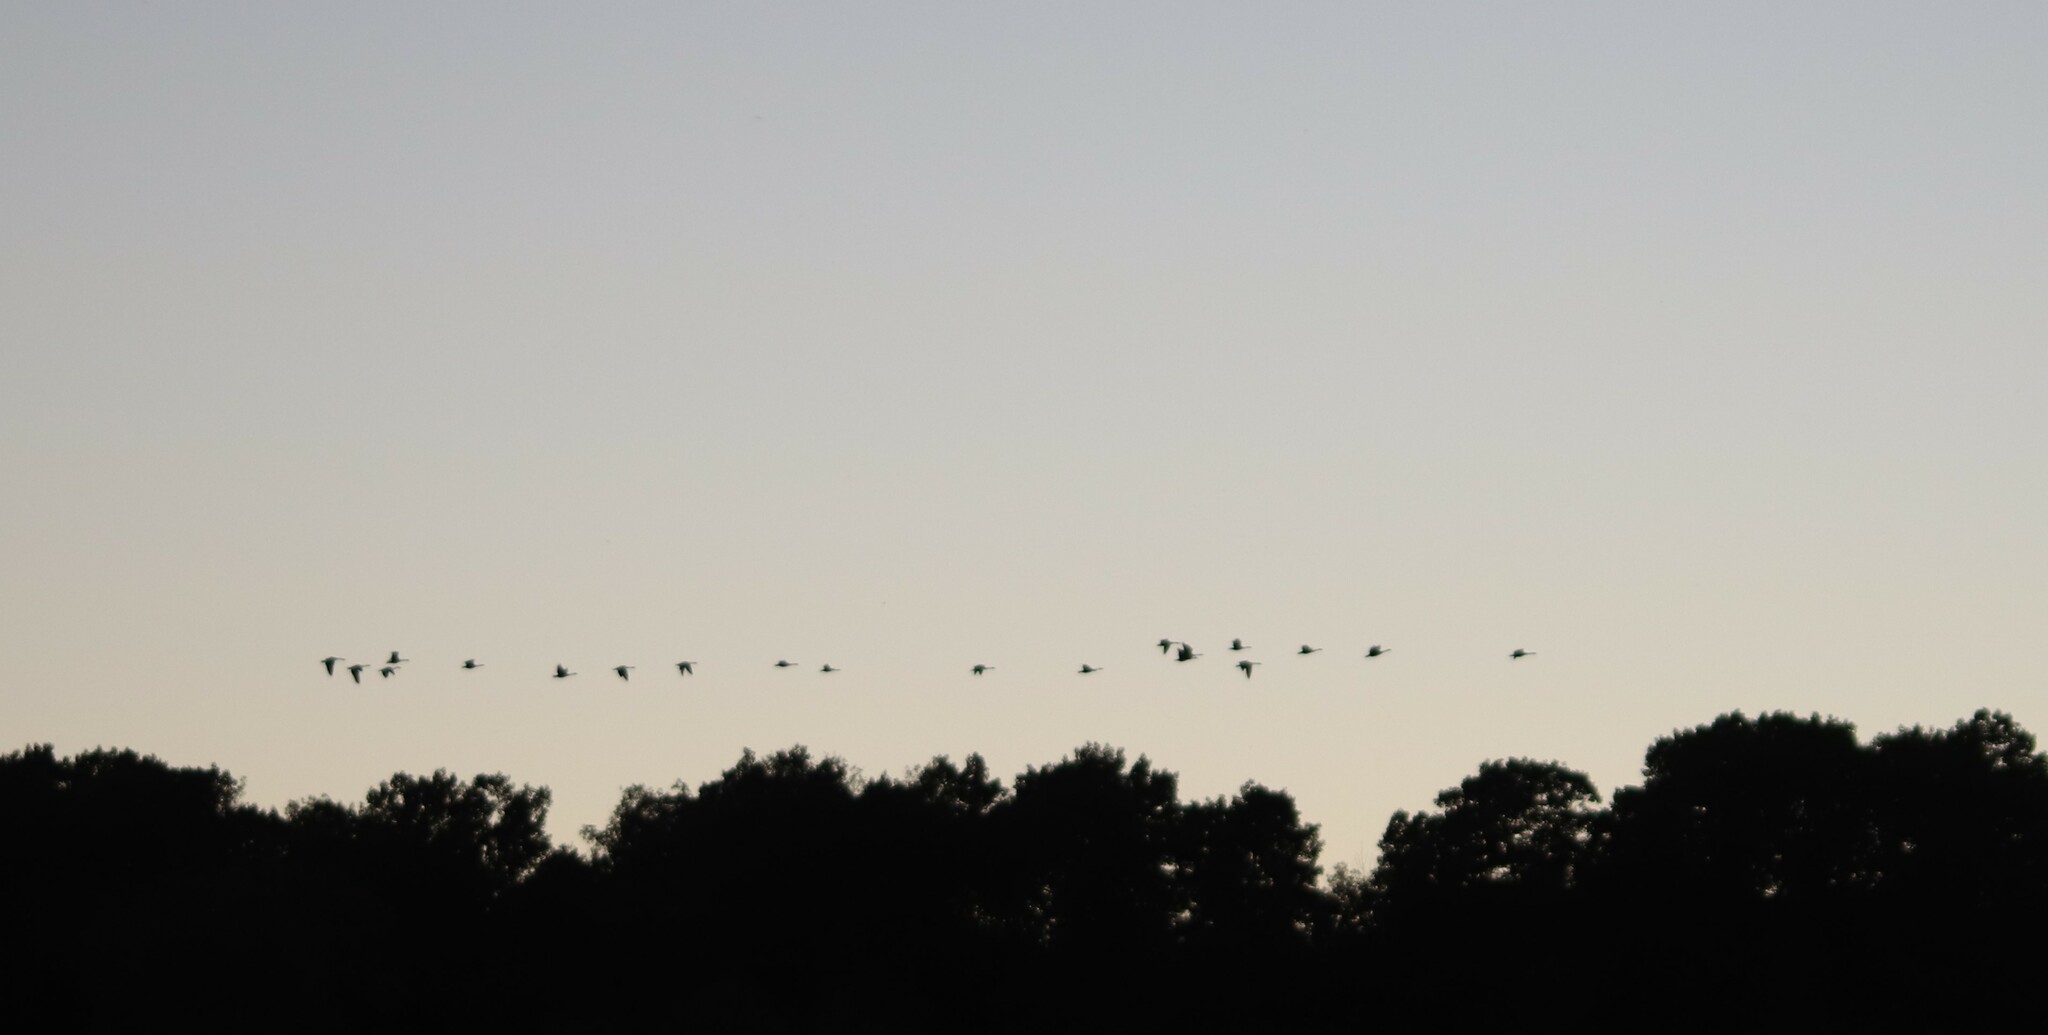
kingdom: Animalia
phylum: Chordata
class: Aves
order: Anseriformes
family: Anatidae
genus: Branta
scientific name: Branta canadensis
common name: Canada goose
